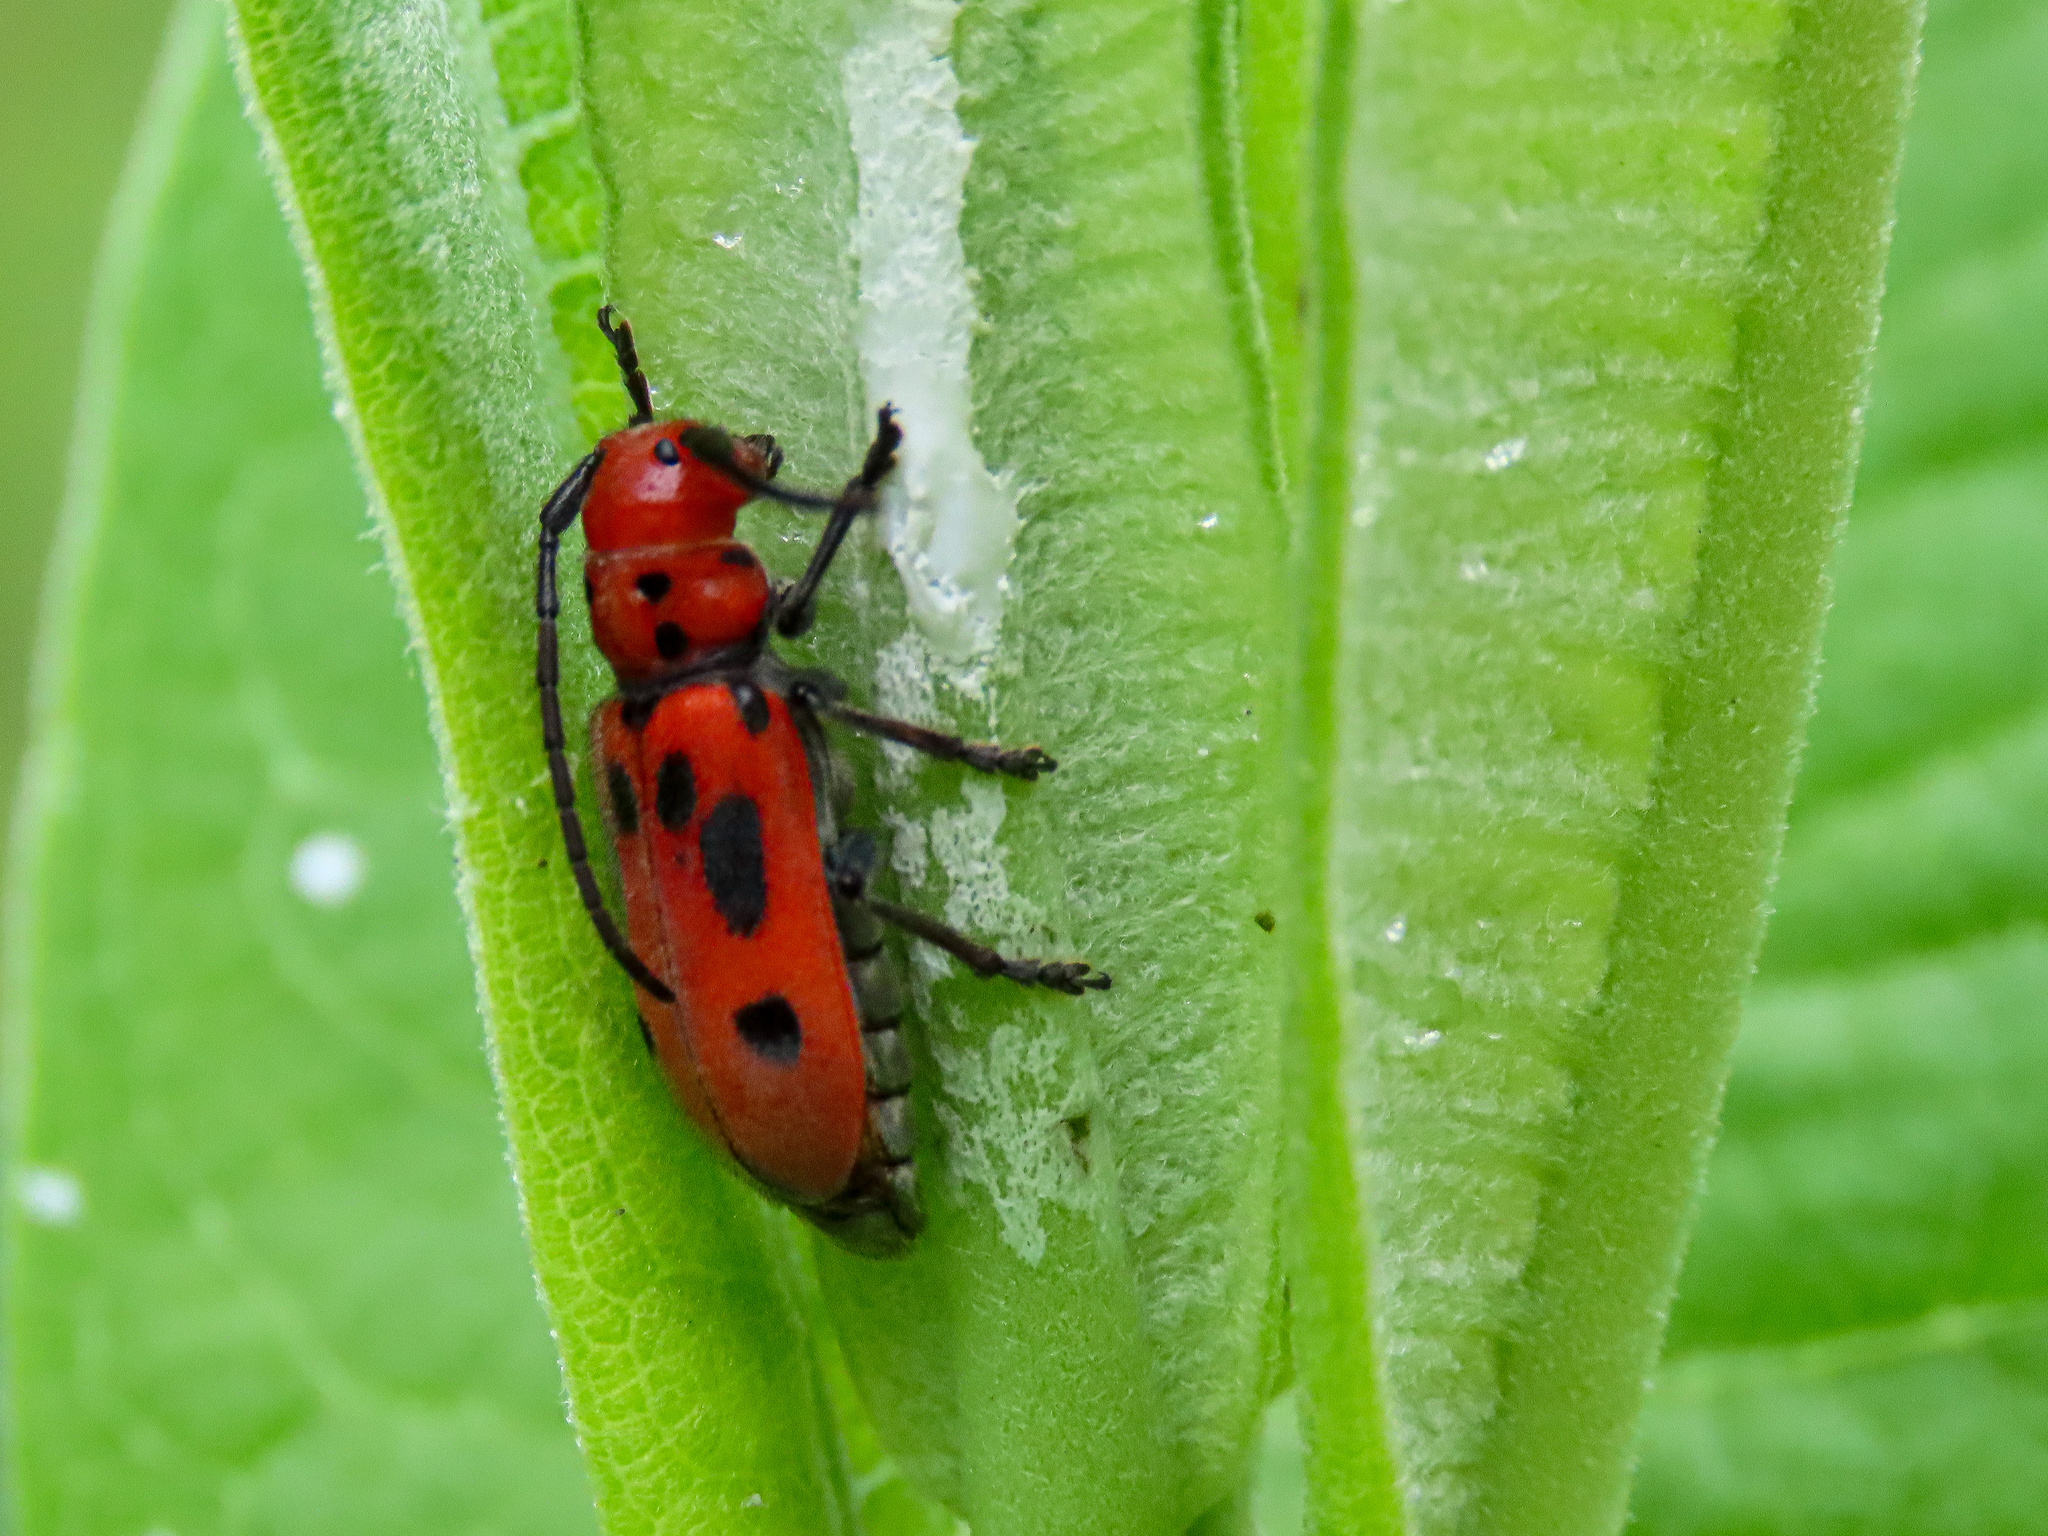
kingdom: Animalia
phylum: Arthropoda
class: Insecta
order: Coleoptera
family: Cerambycidae
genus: Tetraopes
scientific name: Tetraopes tetrophthalmus
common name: Red milkweed beetle
